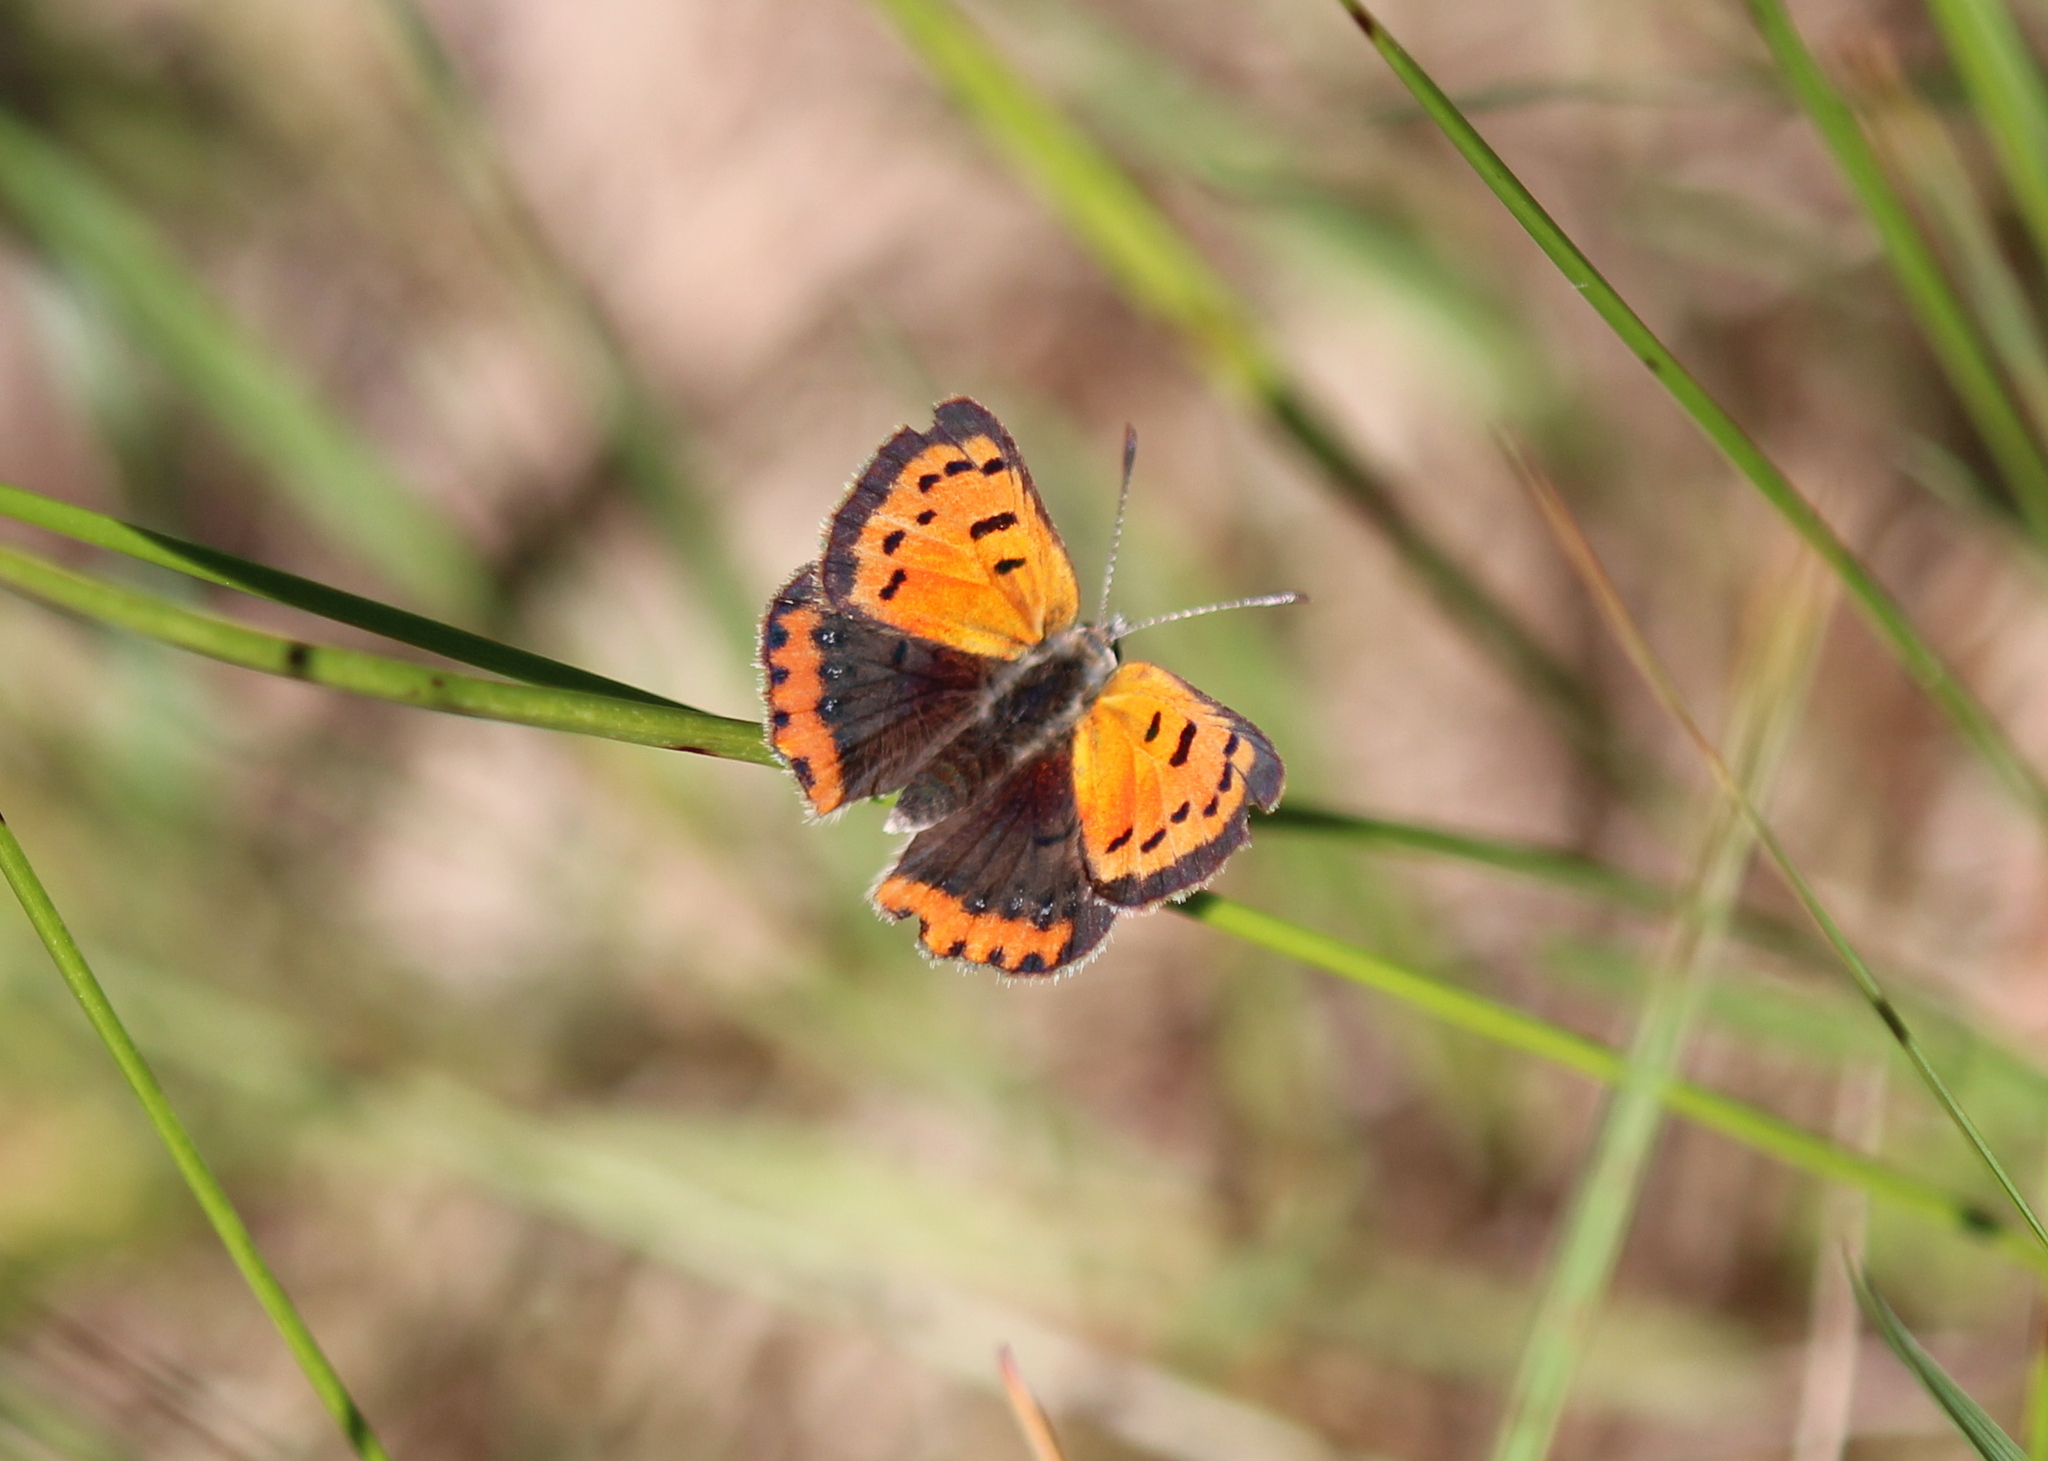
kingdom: Animalia
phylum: Arthropoda
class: Insecta
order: Lepidoptera
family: Lycaenidae
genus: Lycaena
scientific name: Lycaena hypophlaeas
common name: American copper
